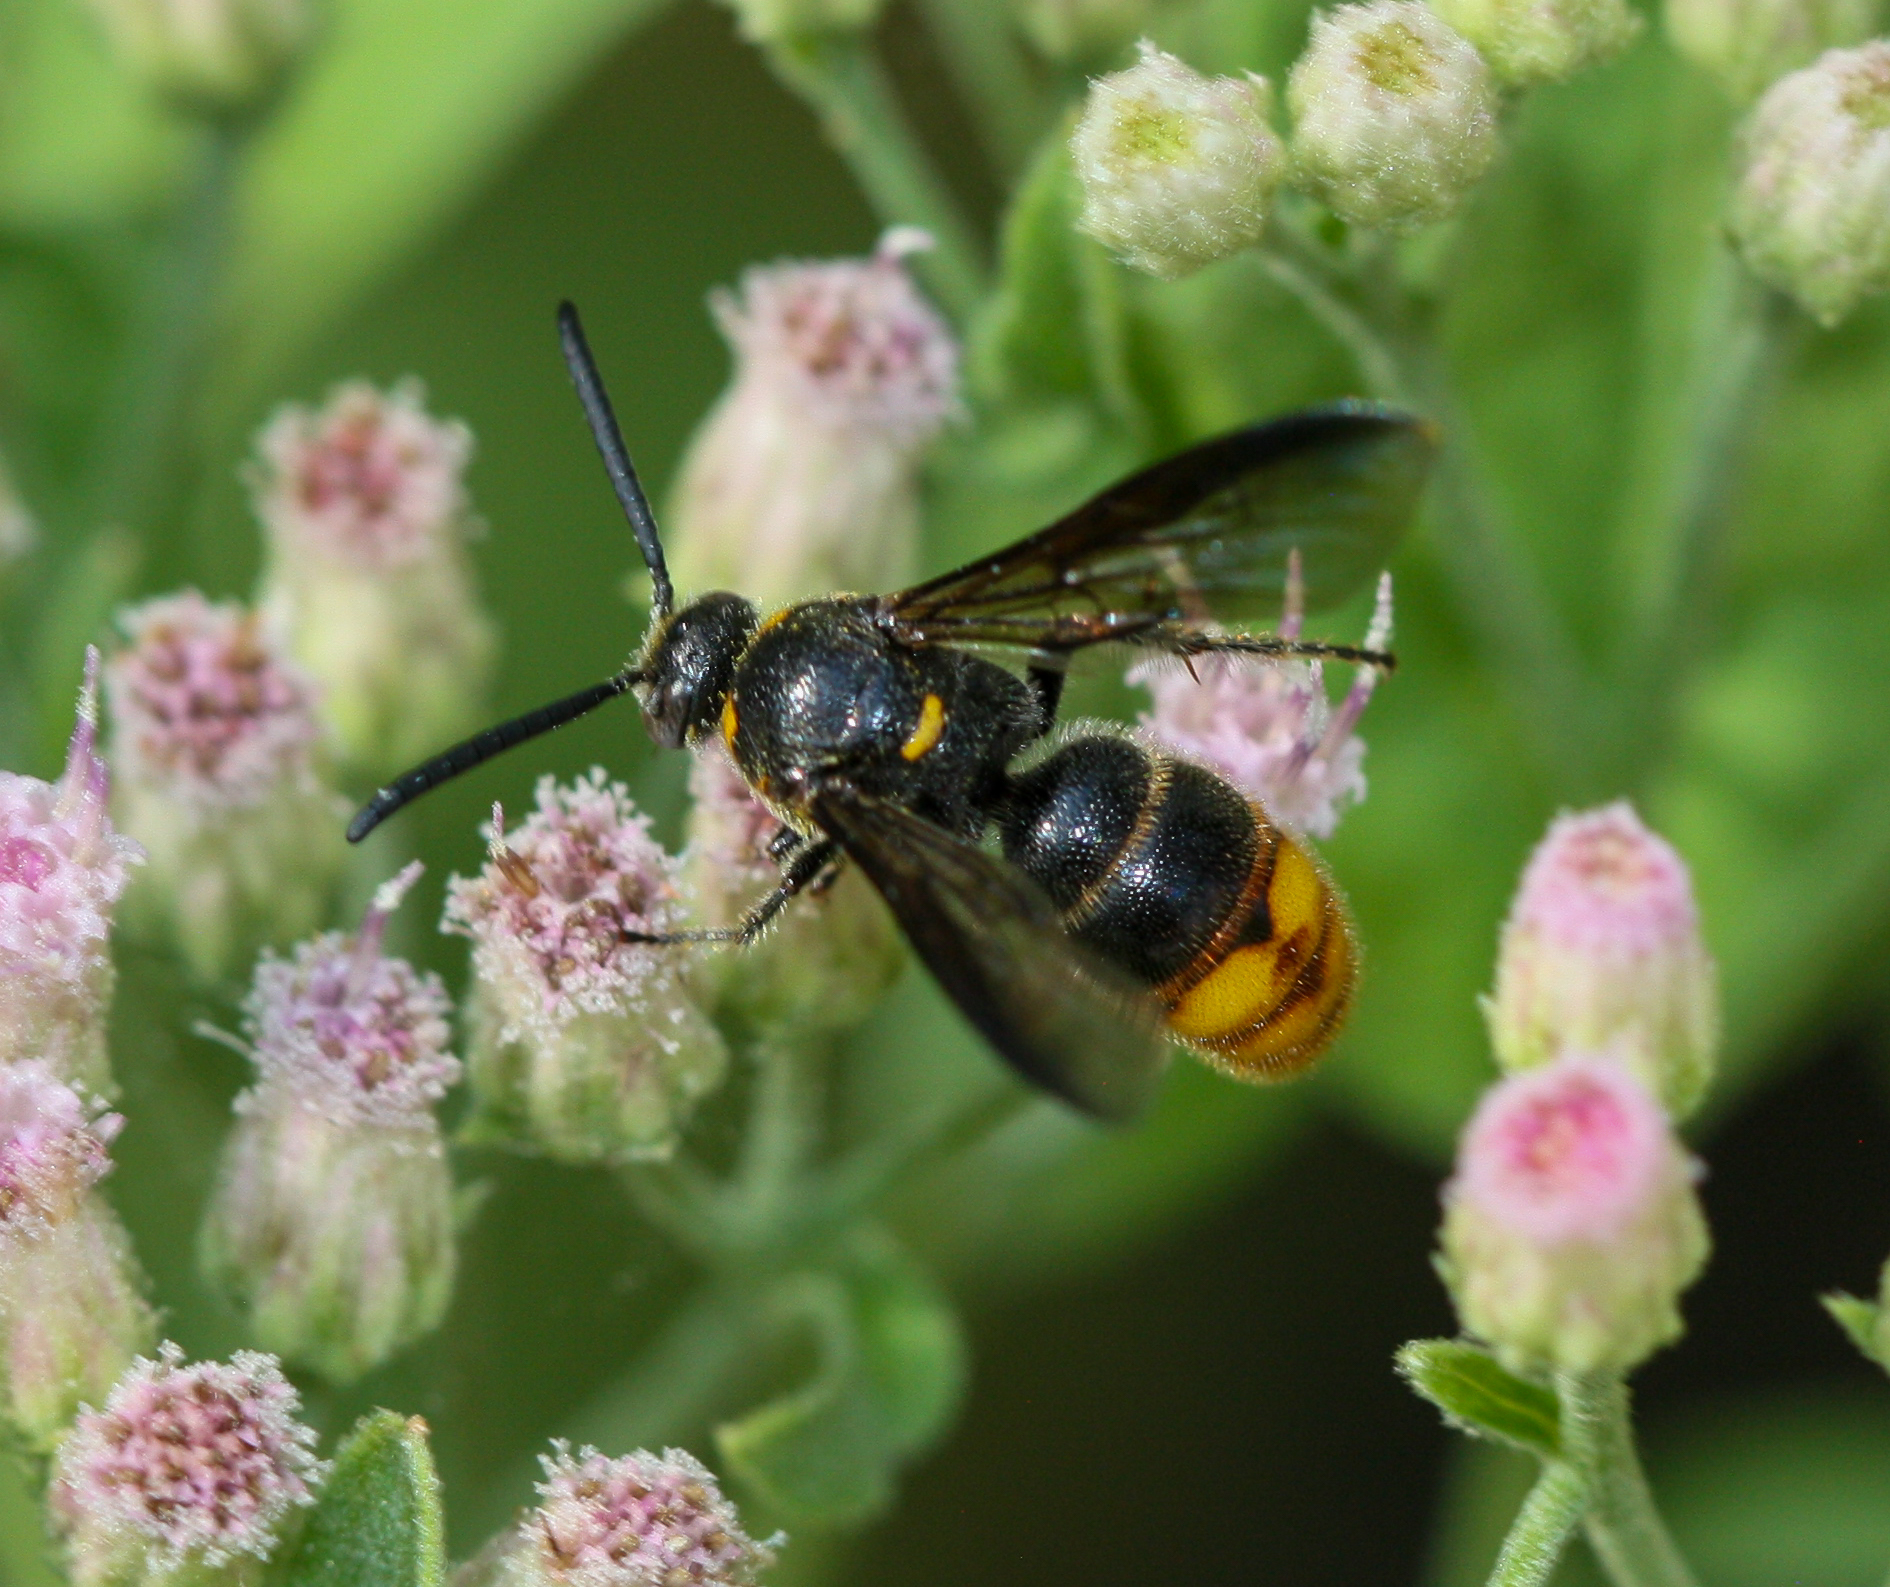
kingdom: Animalia
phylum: Arthropoda
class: Insecta
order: Hymenoptera
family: Scoliidae
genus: Scolia
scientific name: Scolia nobilitata
